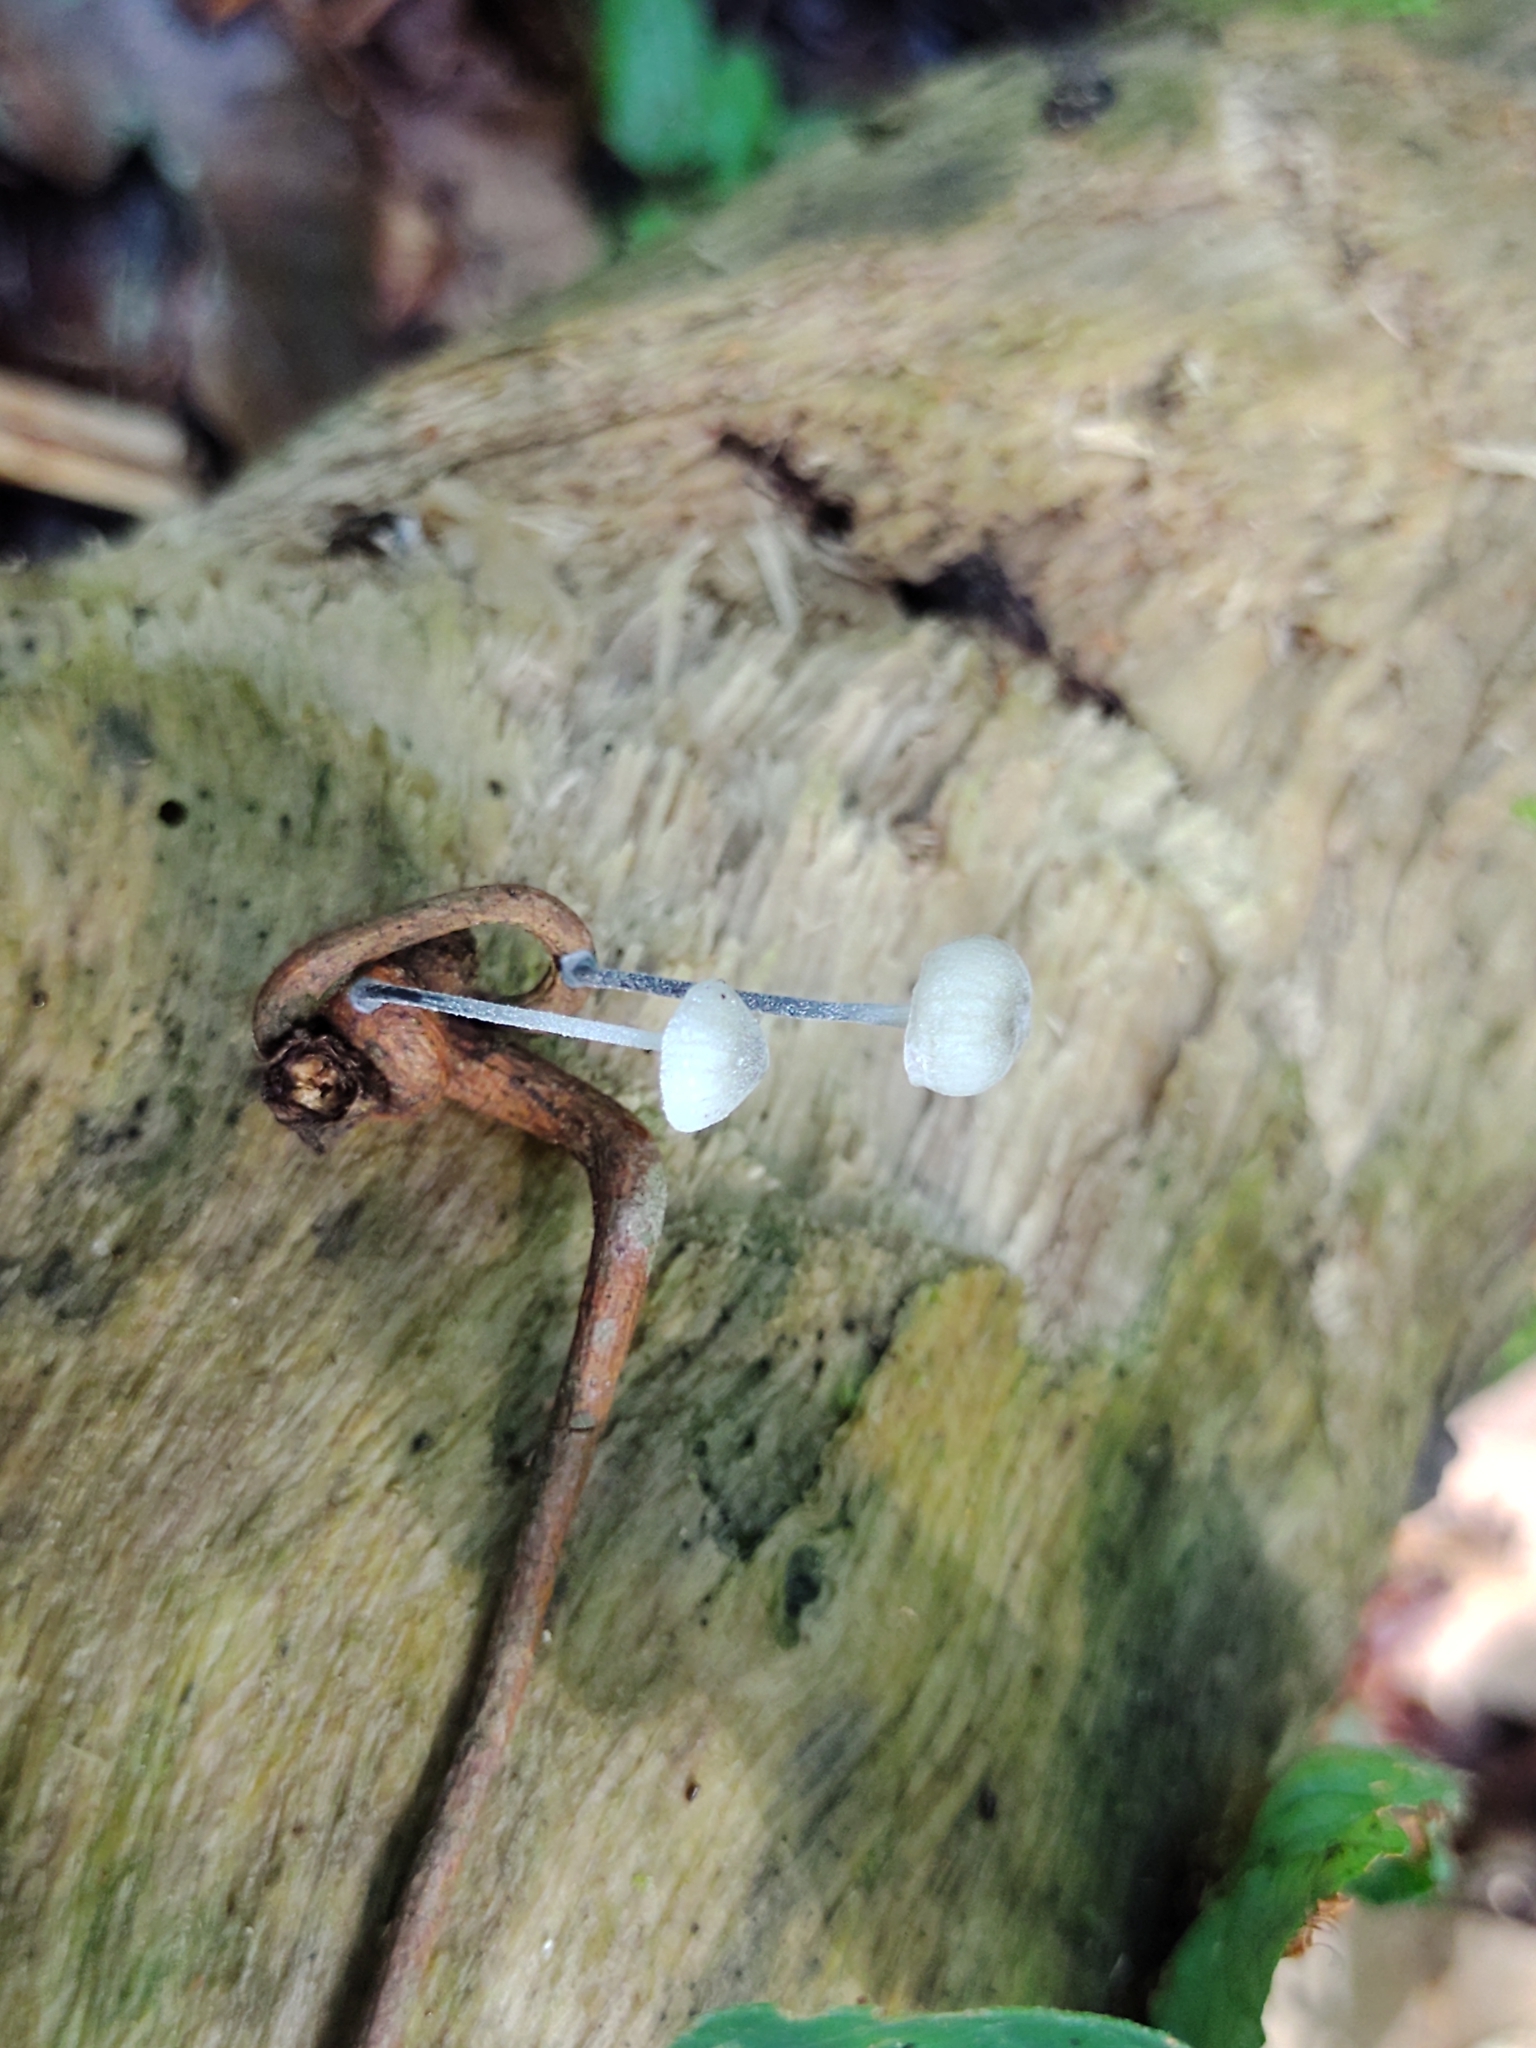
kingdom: Fungi
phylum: Basidiomycota
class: Agaricomycetes
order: Agaricales
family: Marasmiaceae
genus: Tetrapyrgos
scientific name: Tetrapyrgos nigripes
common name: Black-stalked marasmius
